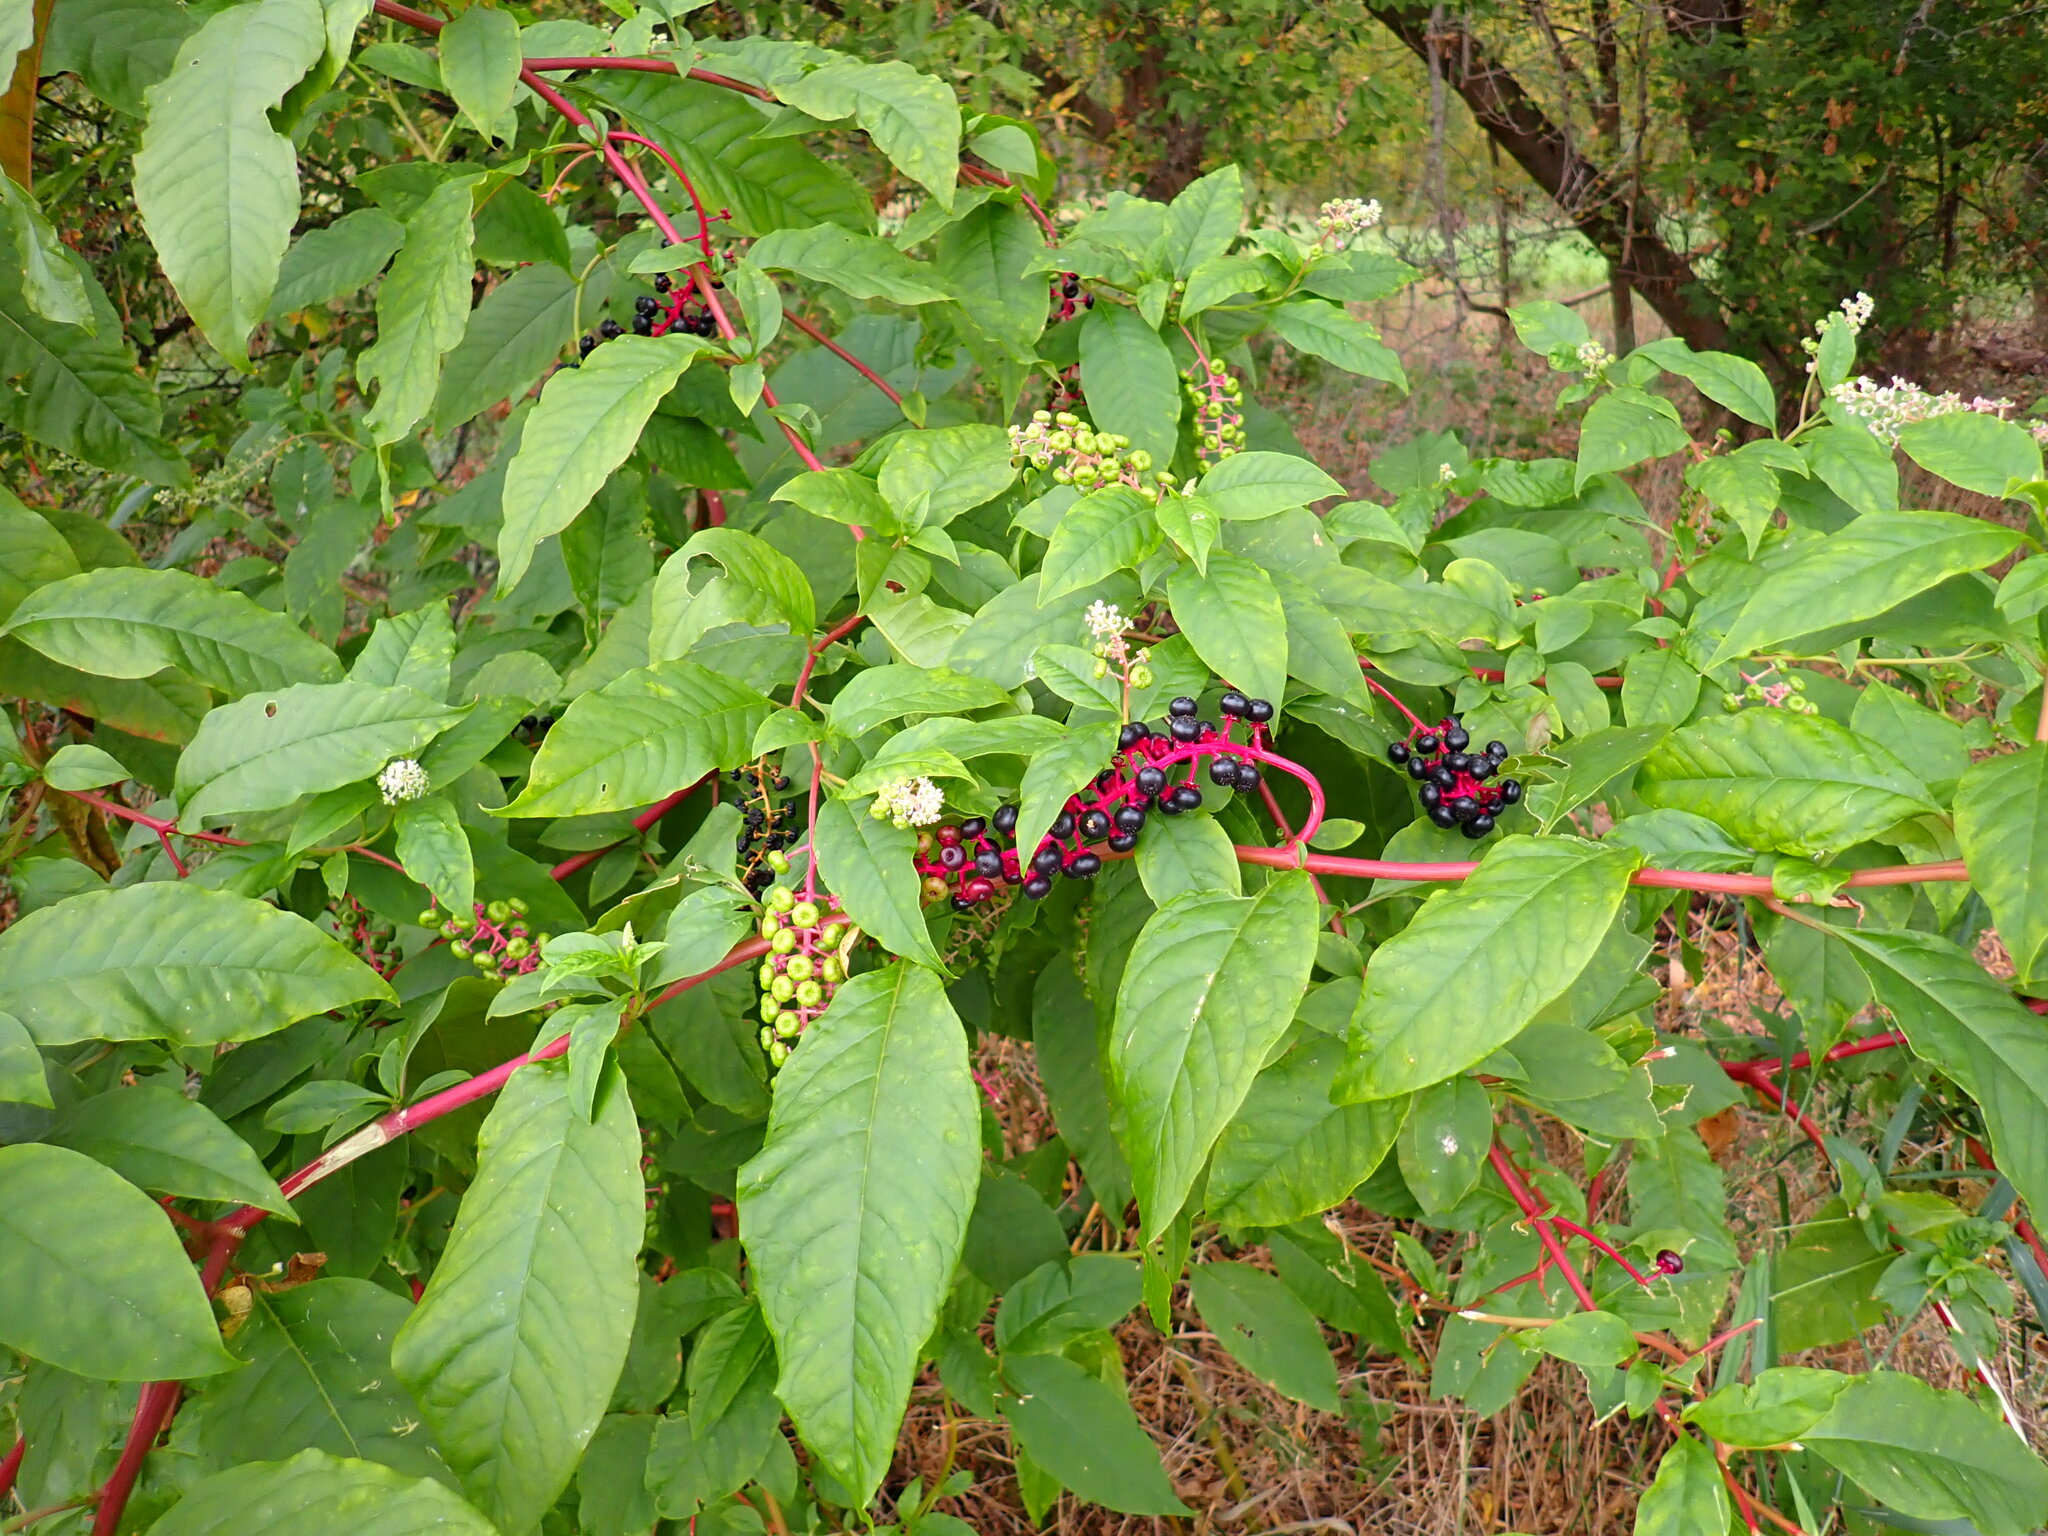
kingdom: Plantae
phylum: Tracheophyta
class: Magnoliopsida
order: Caryophyllales
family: Phytolaccaceae
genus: Phytolacca
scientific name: Phytolacca americana
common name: American pokeweed
